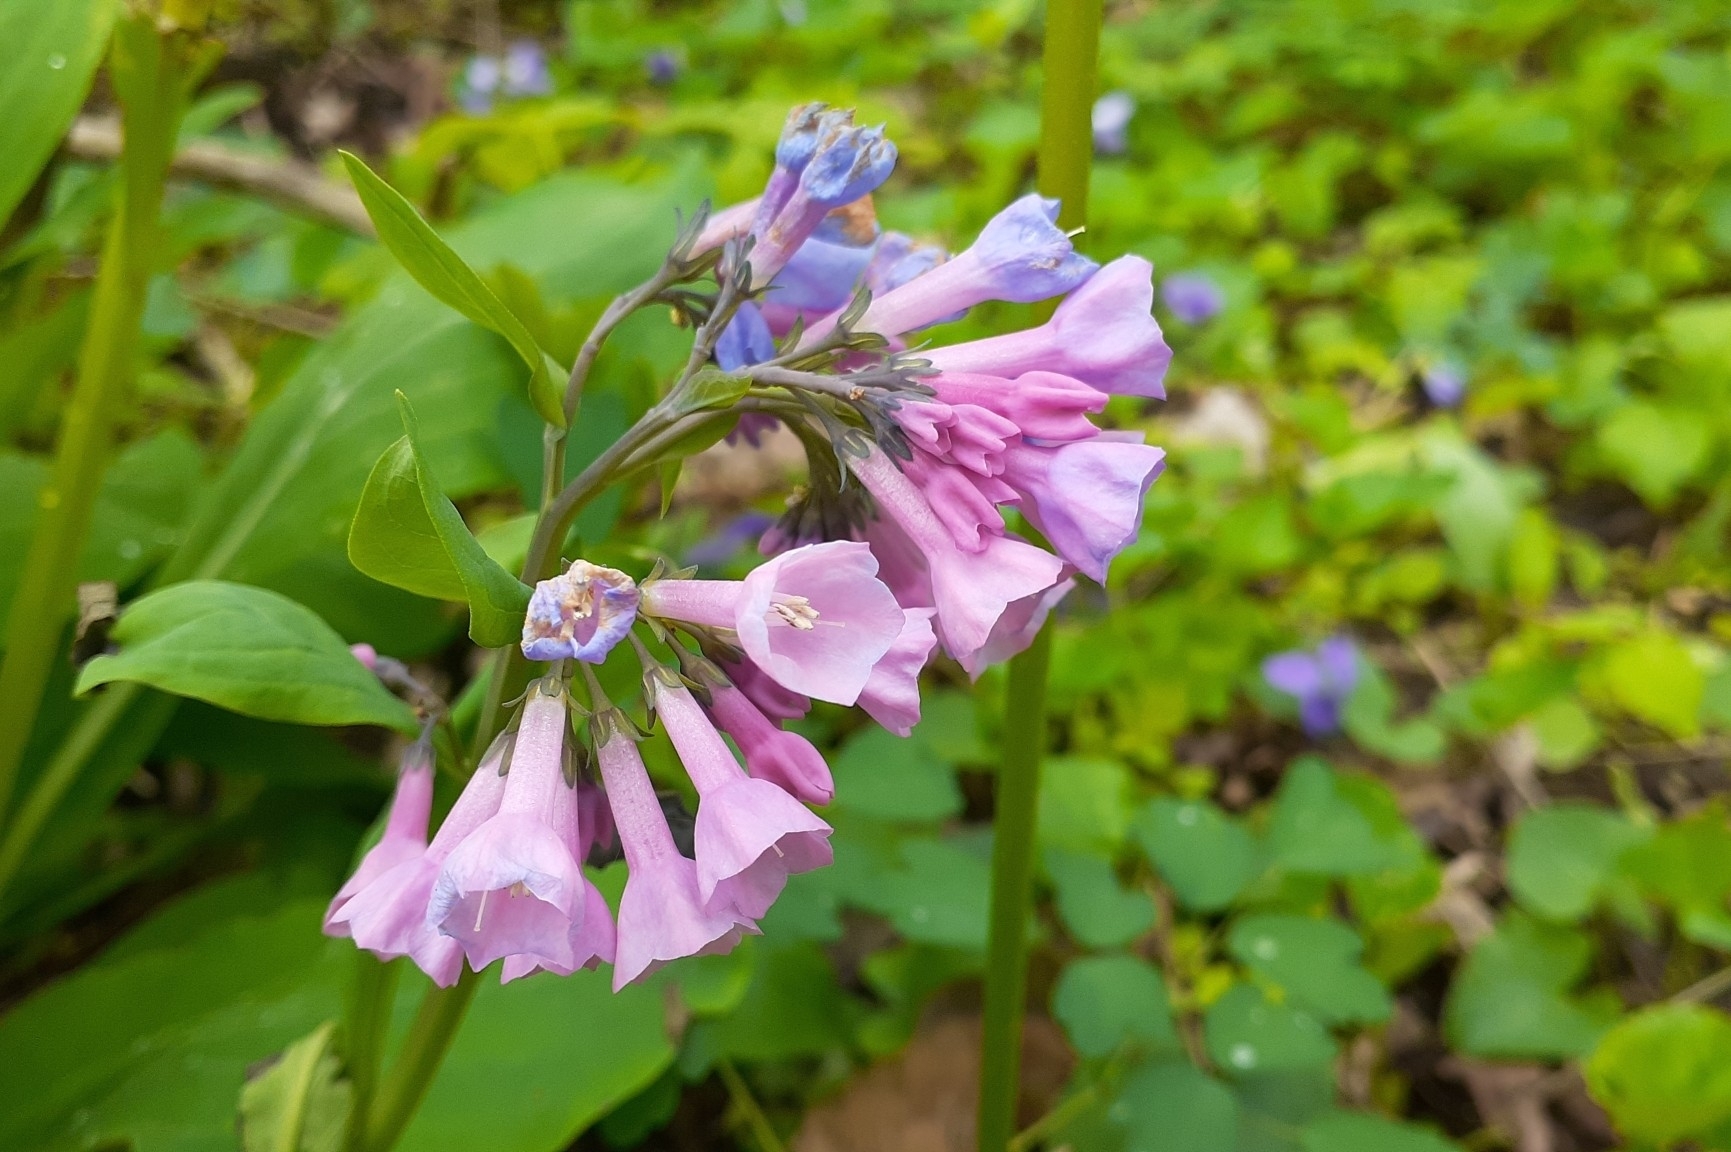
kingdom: Plantae
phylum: Tracheophyta
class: Magnoliopsida
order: Boraginales
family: Boraginaceae
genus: Mertensia
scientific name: Mertensia virginica
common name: Virginia bluebells
